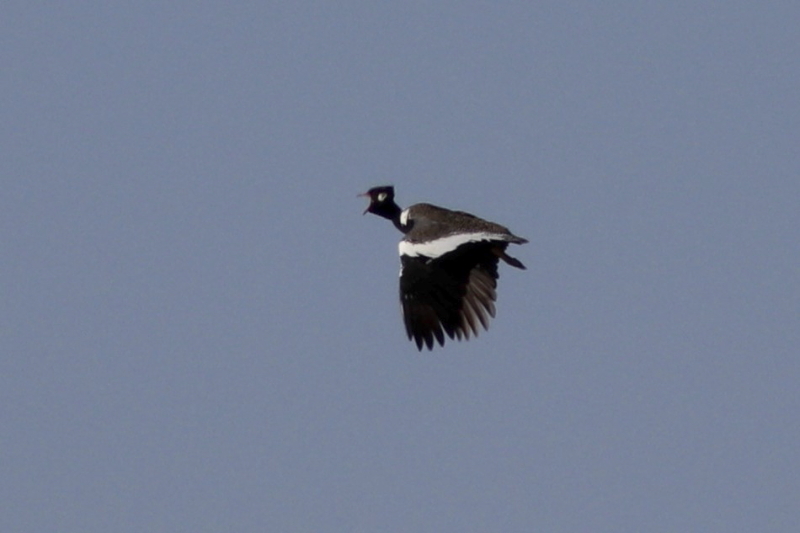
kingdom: Animalia
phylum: Chordata
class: Aves
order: Otidiformes
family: Otididae
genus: Afrotis
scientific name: Afrotis afra
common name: Southern black korhaan
